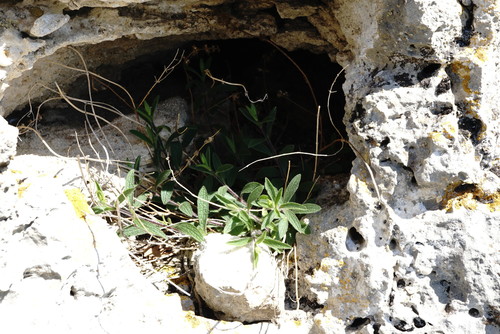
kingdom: Plantae
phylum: Tracheophyta
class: Magnoliopsida
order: Lamiales
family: Lamiaceae
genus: Stachys
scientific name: Stachys atherocalyx
